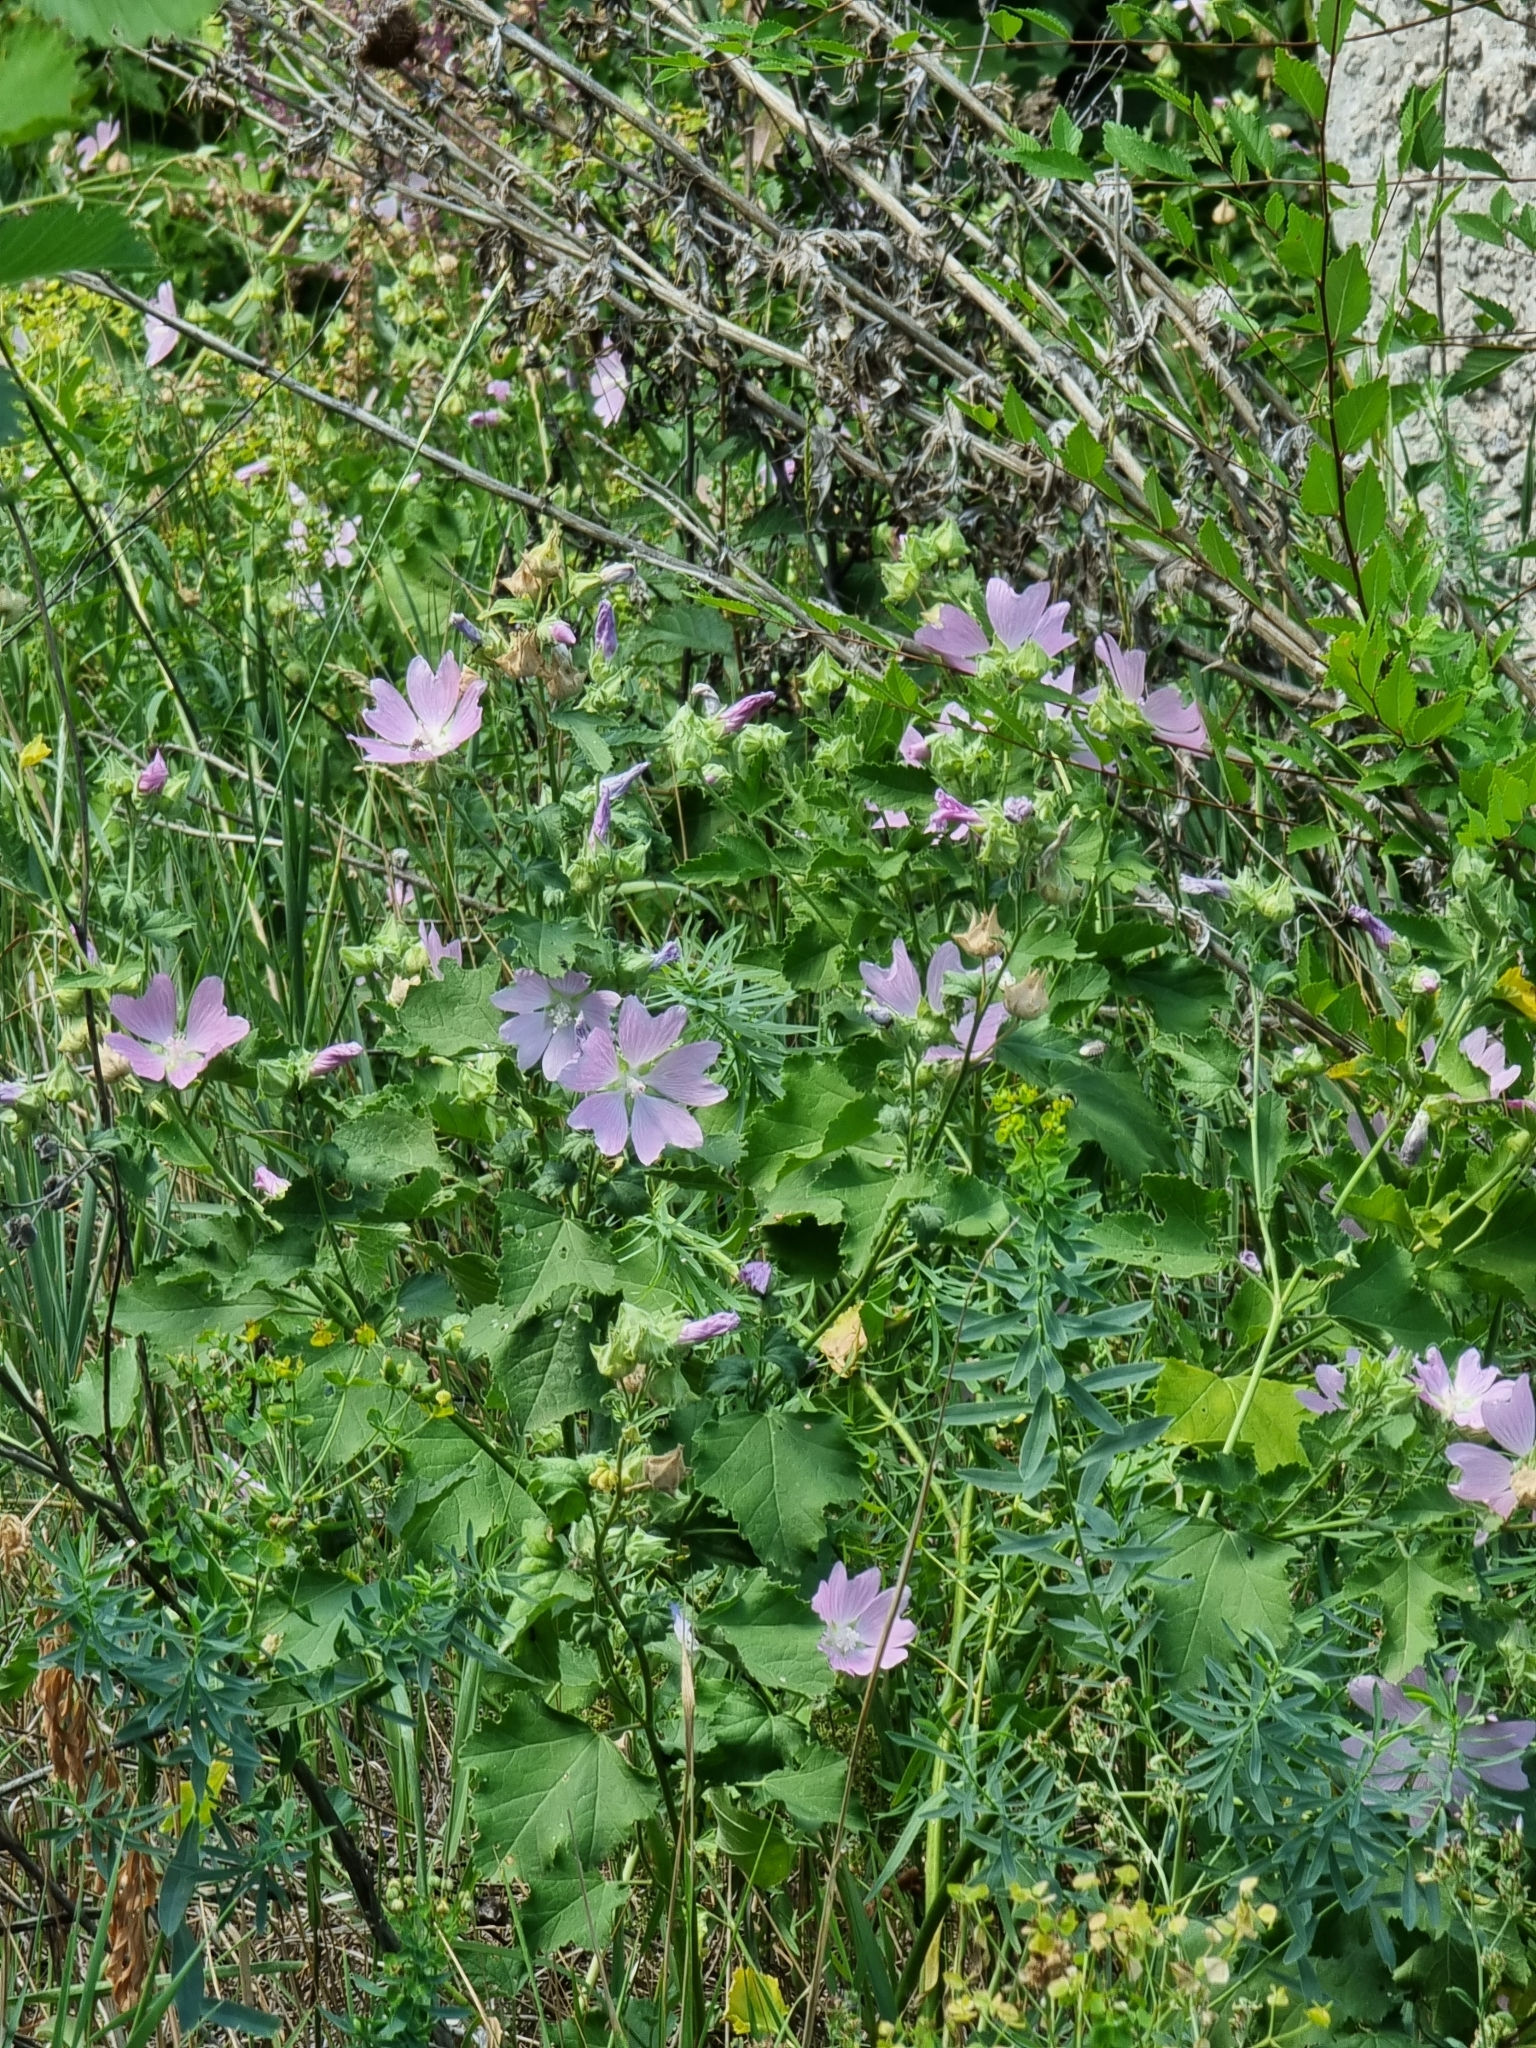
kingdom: Plantae
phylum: Tracheophyta
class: Magnoliopsida
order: Malvales
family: Malvaceae
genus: Malva
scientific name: Malva thuringiaca
